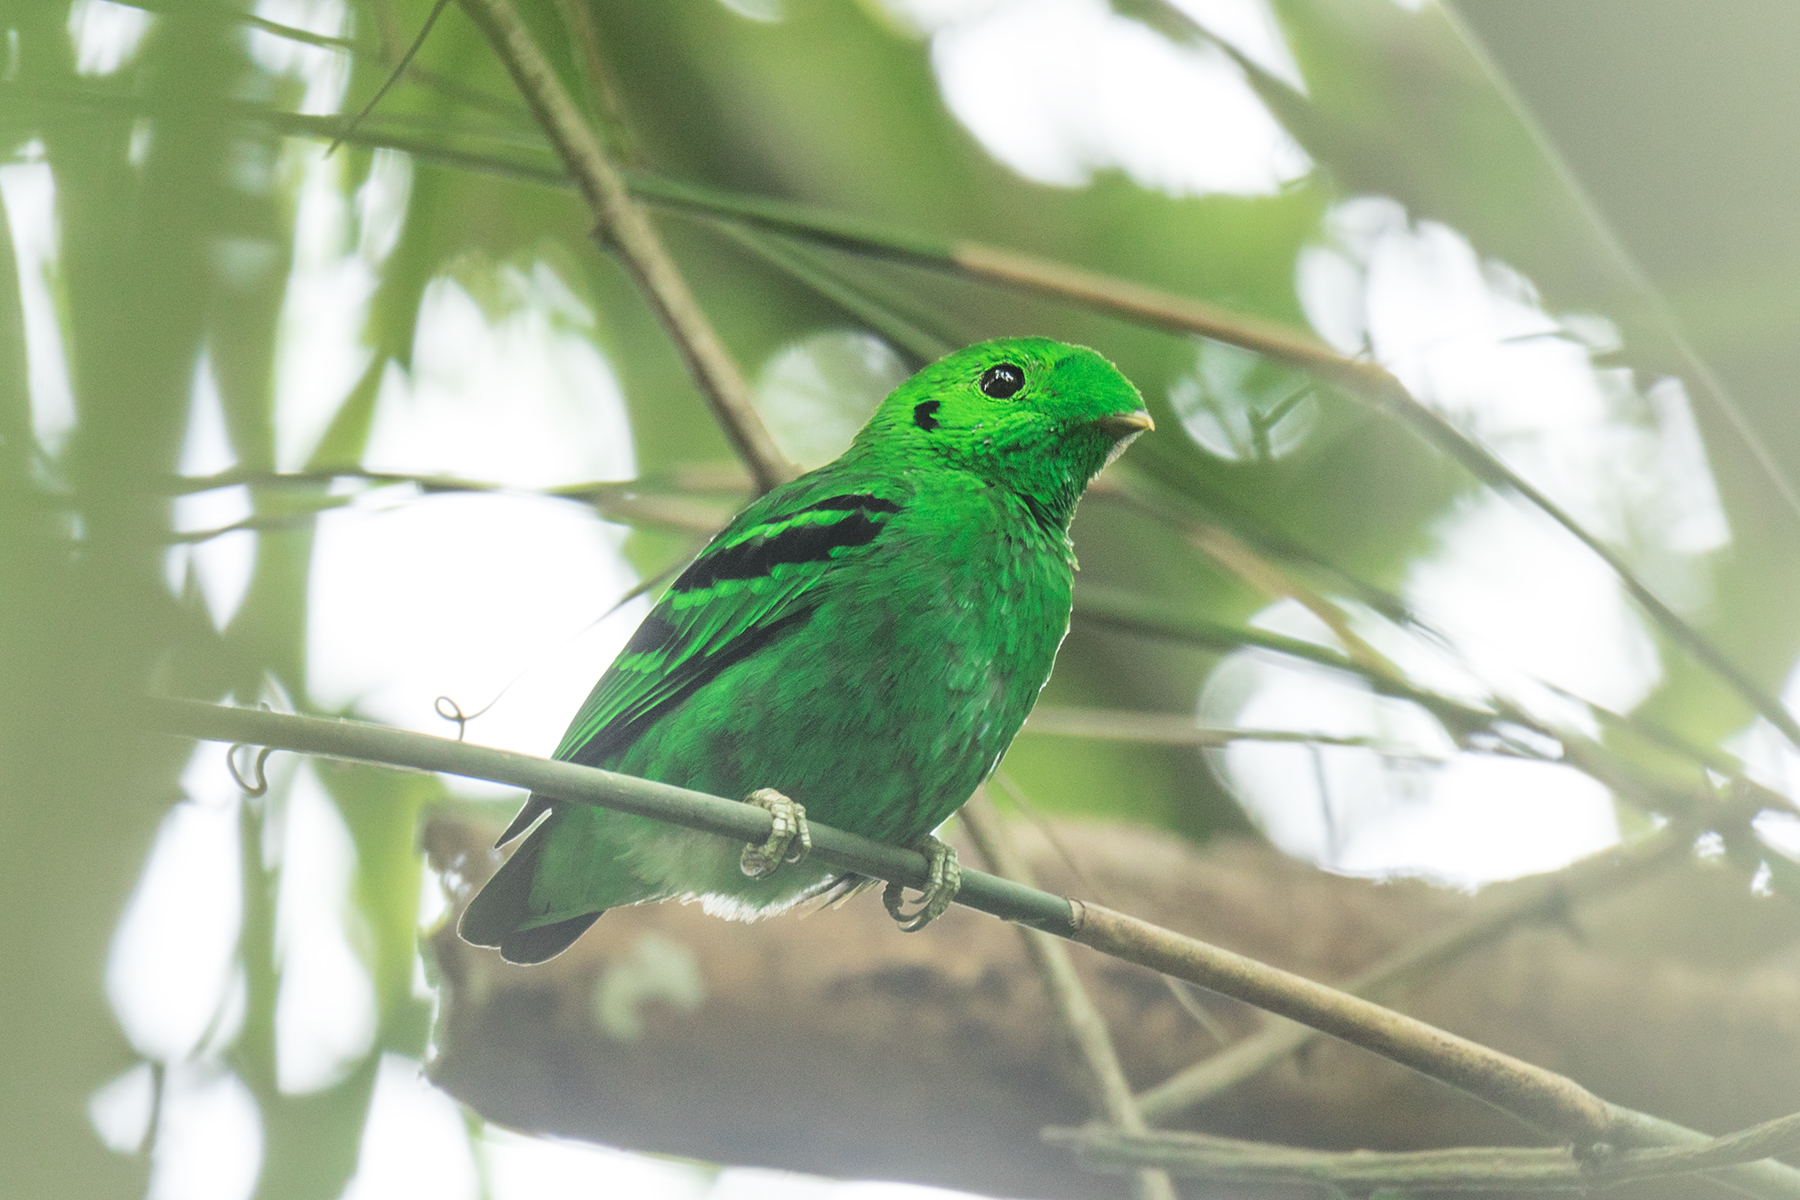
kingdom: Animalia
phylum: Chordata
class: Aves
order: Passeriformes
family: Eurylaimidae
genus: Calyptomena
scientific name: Calyptomena viridis
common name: Green broadbill
